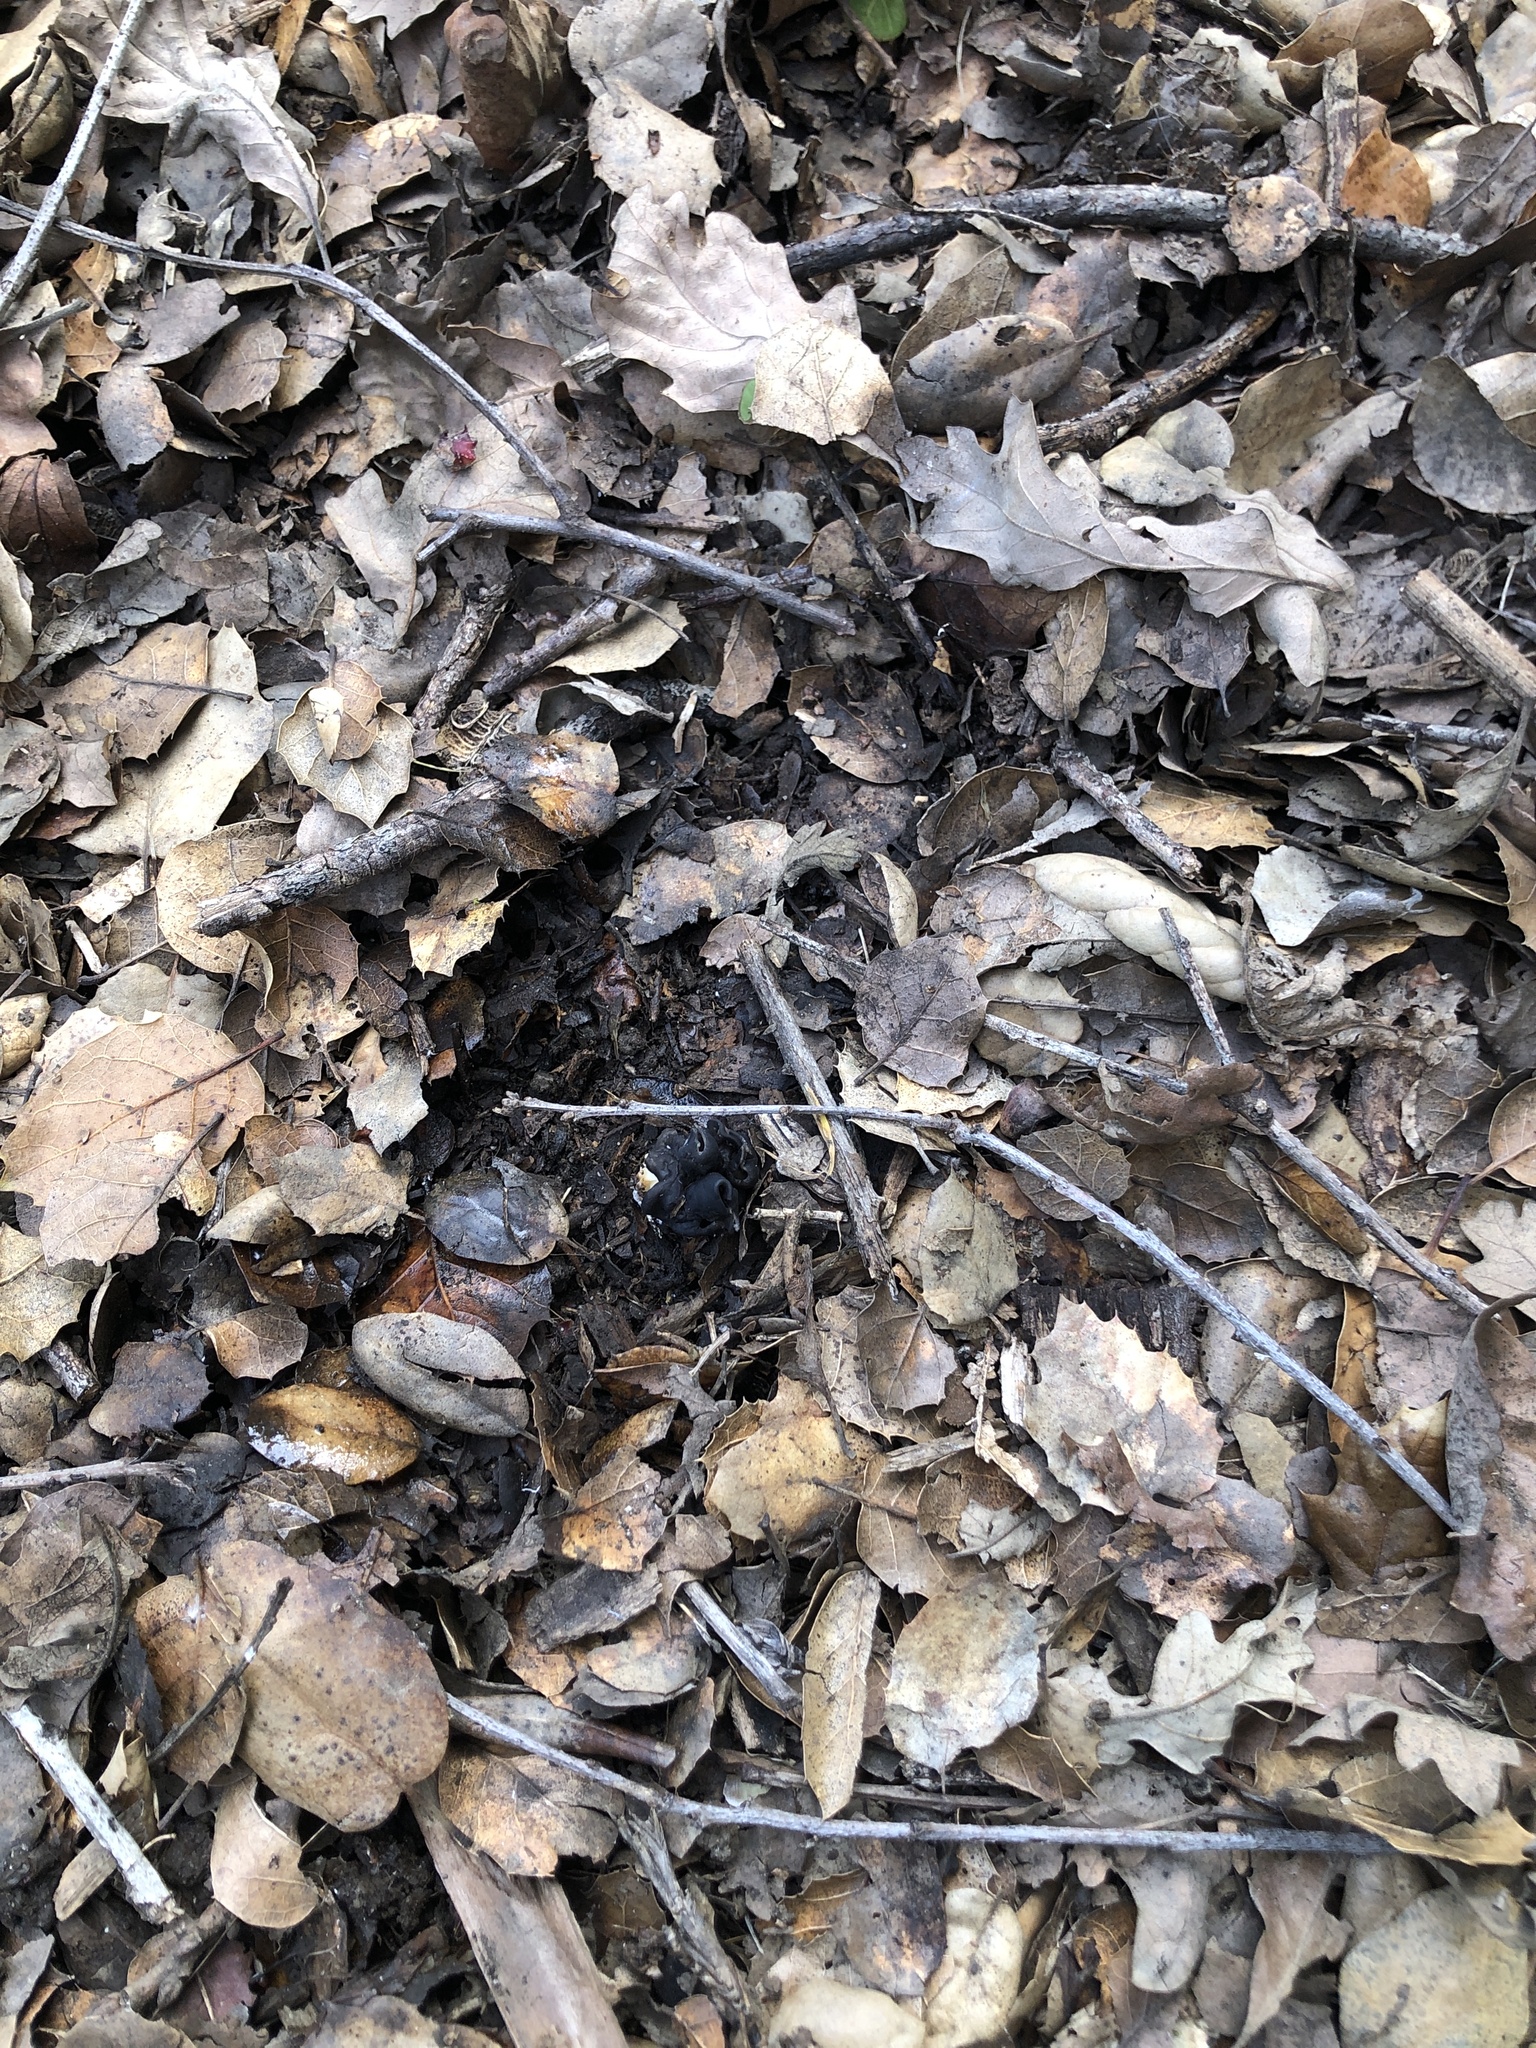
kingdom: Fungi
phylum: Ascomycota
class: Pezizomycetes
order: Pezizales
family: Helvellaceae
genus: Helvella
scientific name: Helvella dryophila
